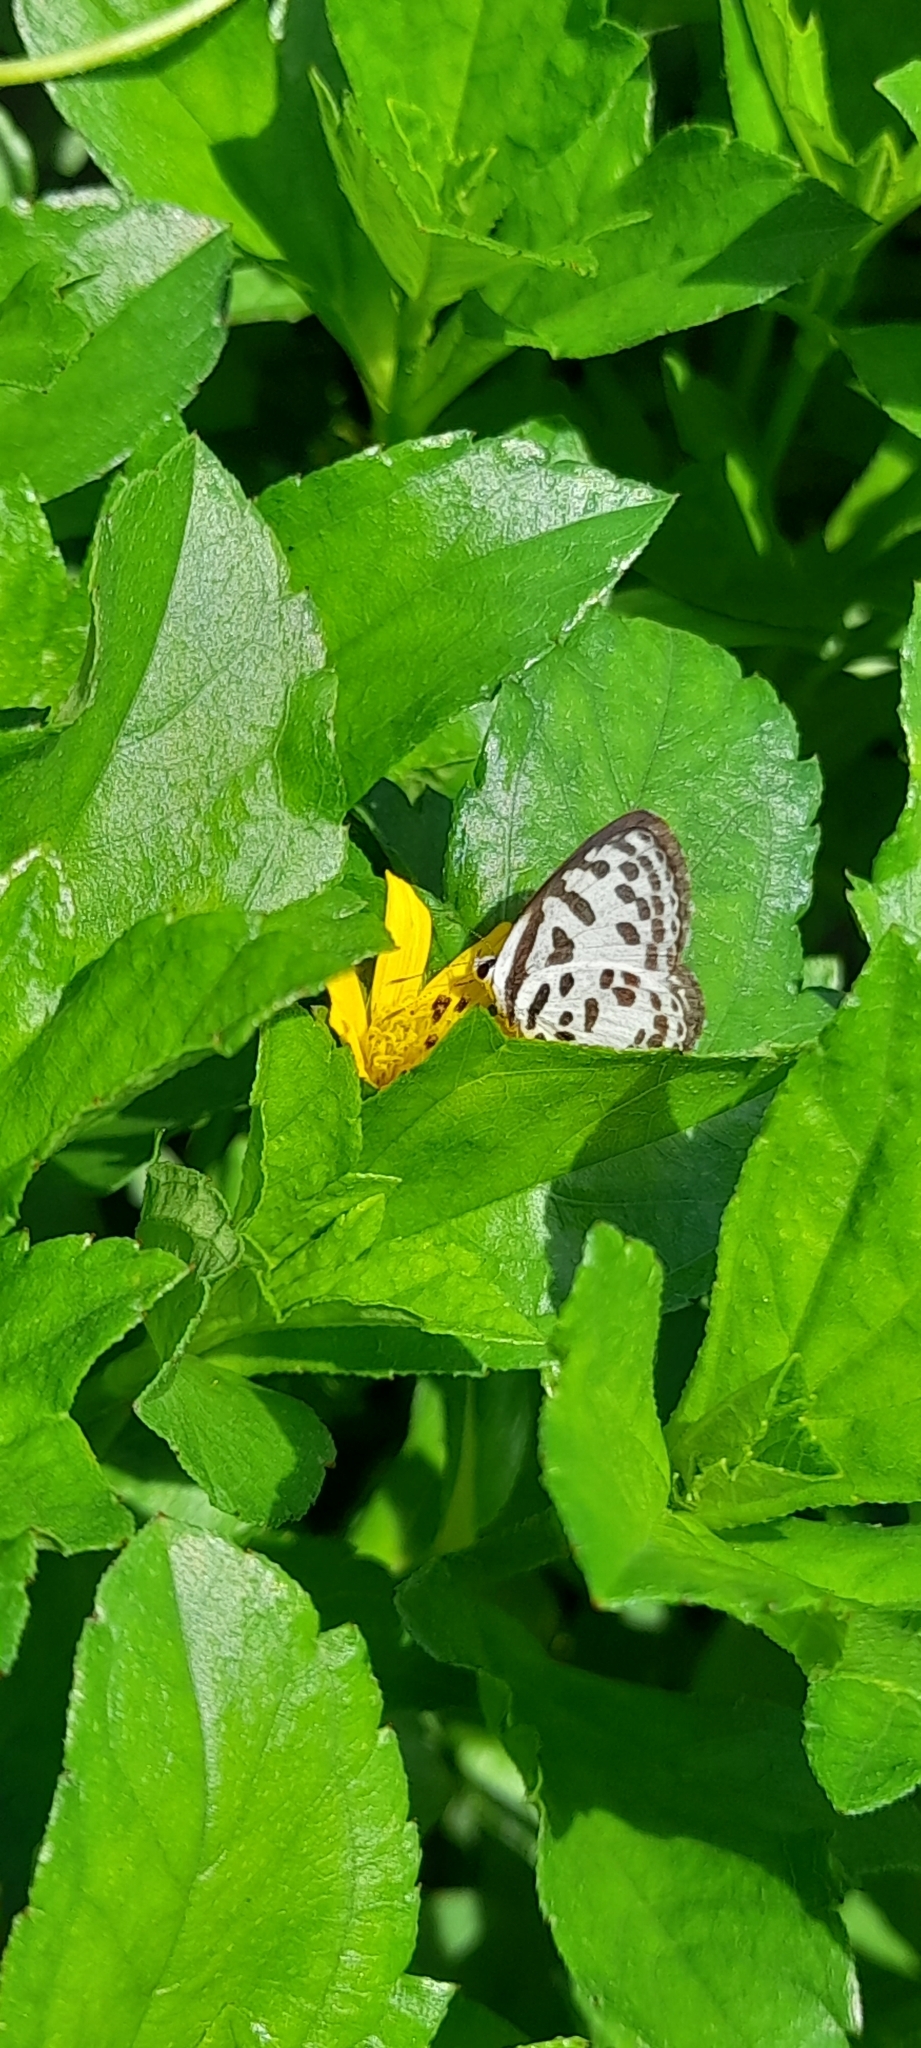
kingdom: Animalia
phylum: Arthropoda
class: Insecta
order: Lepidoptera
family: Lycaenidae
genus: Castalius
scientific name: Castalius rosimon
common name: Common pierrot
